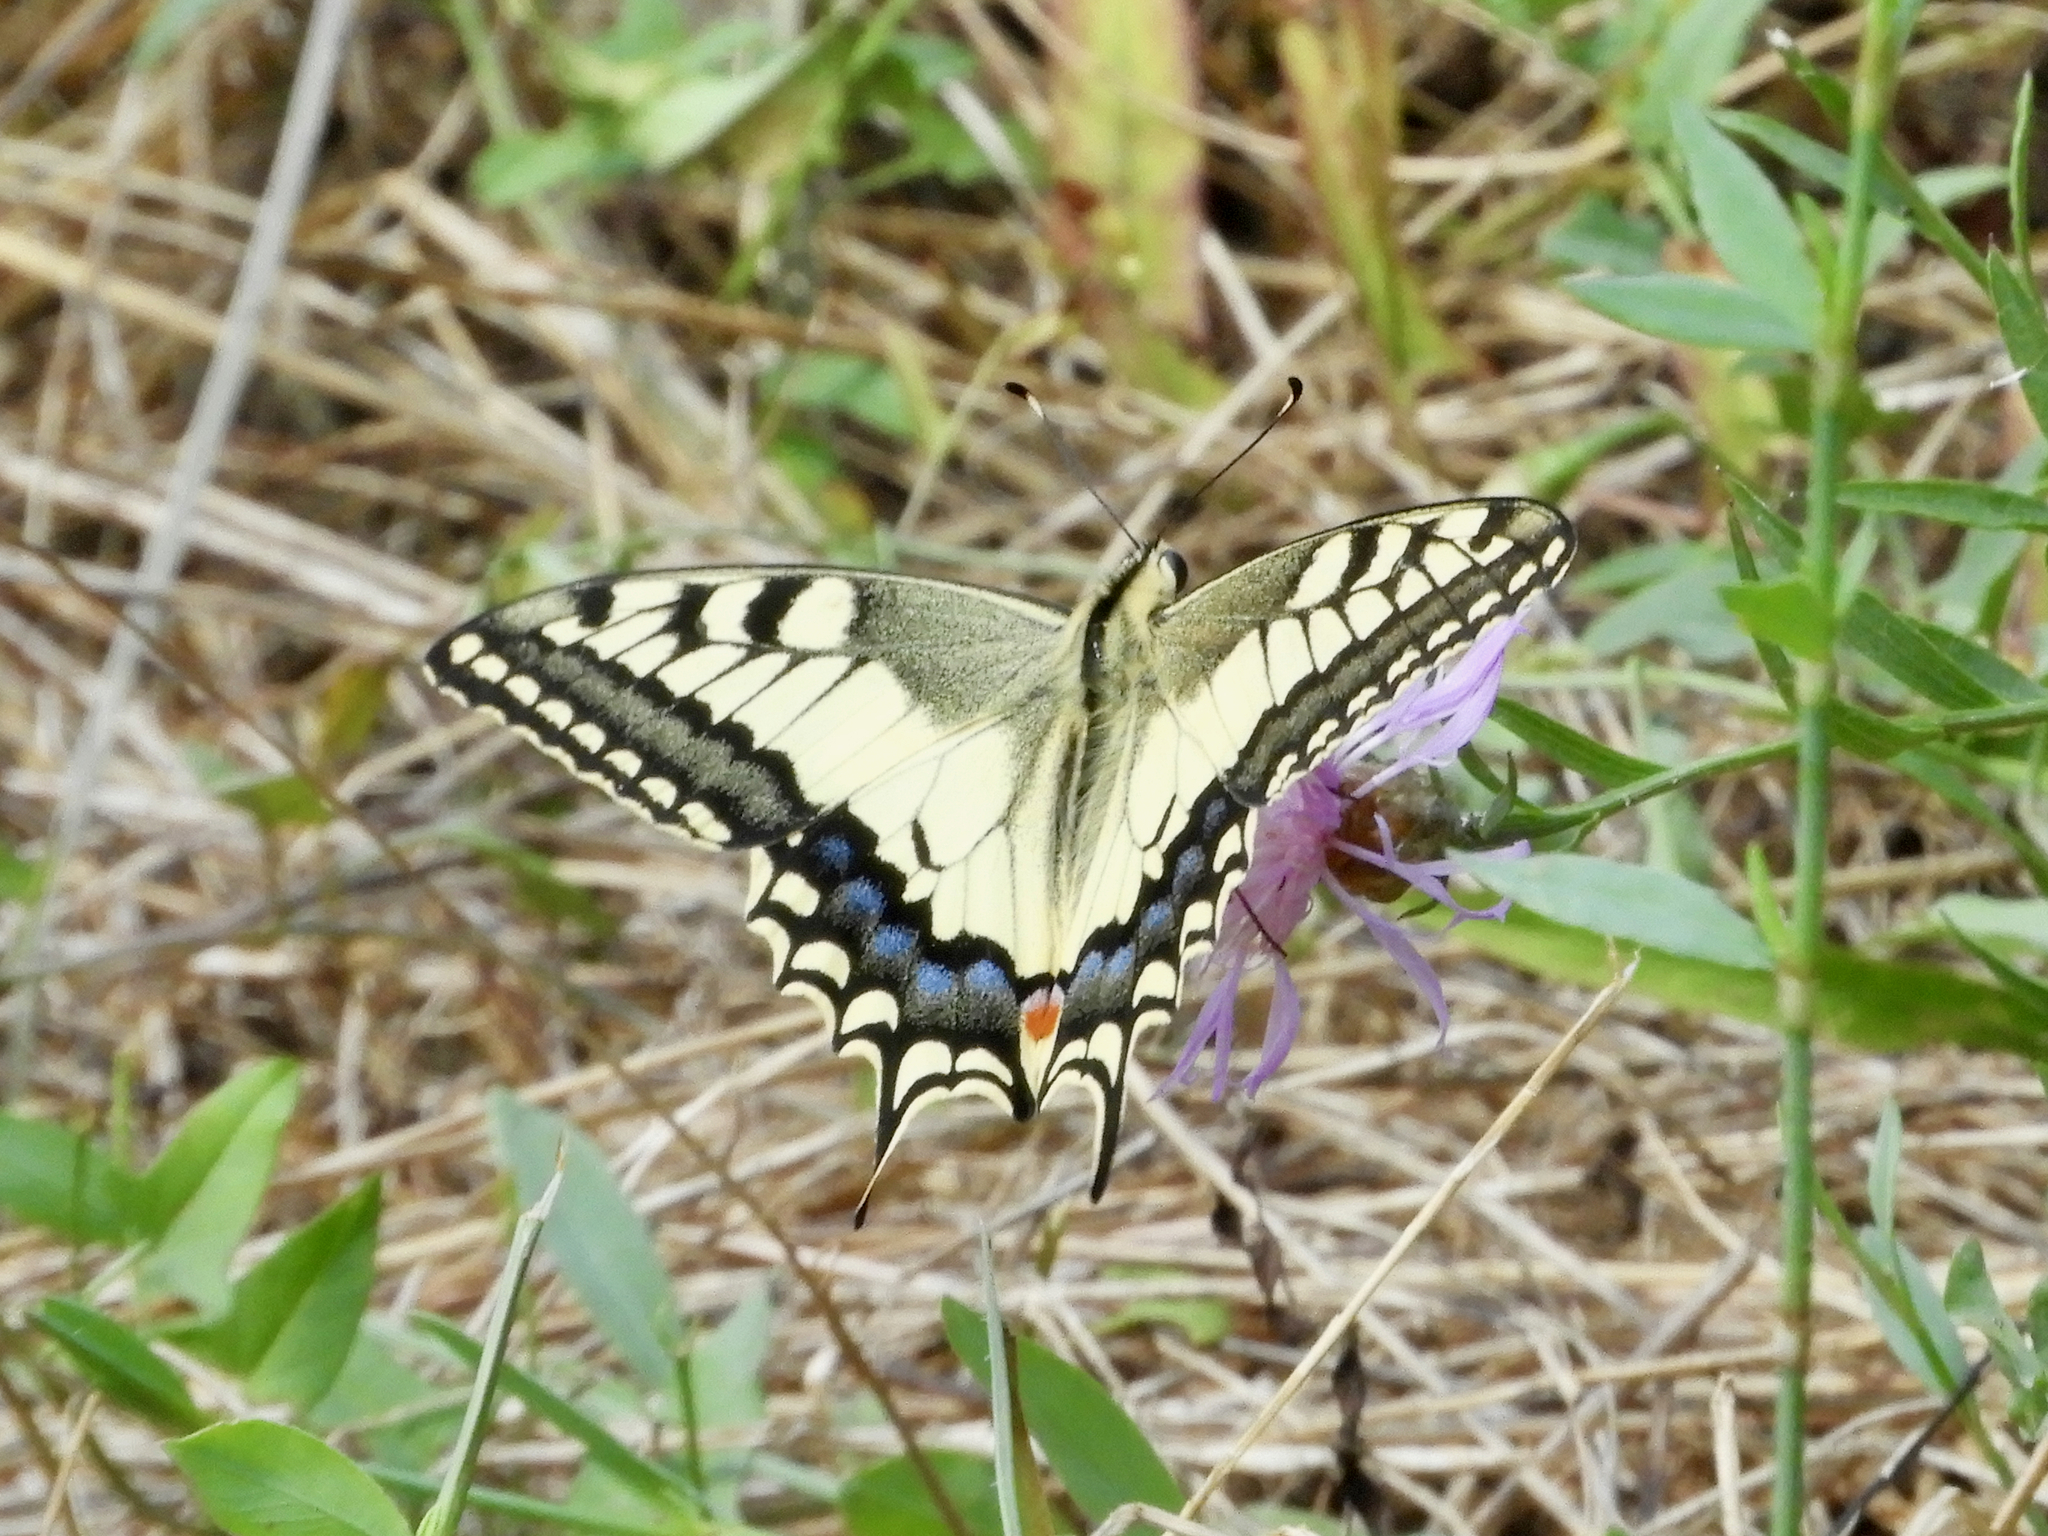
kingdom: Animalia
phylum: Arthropoda
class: Insecta
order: Lepidoptera
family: Papilionidae
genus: Papilio
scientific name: Papilio machaon
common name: Swallowtail
